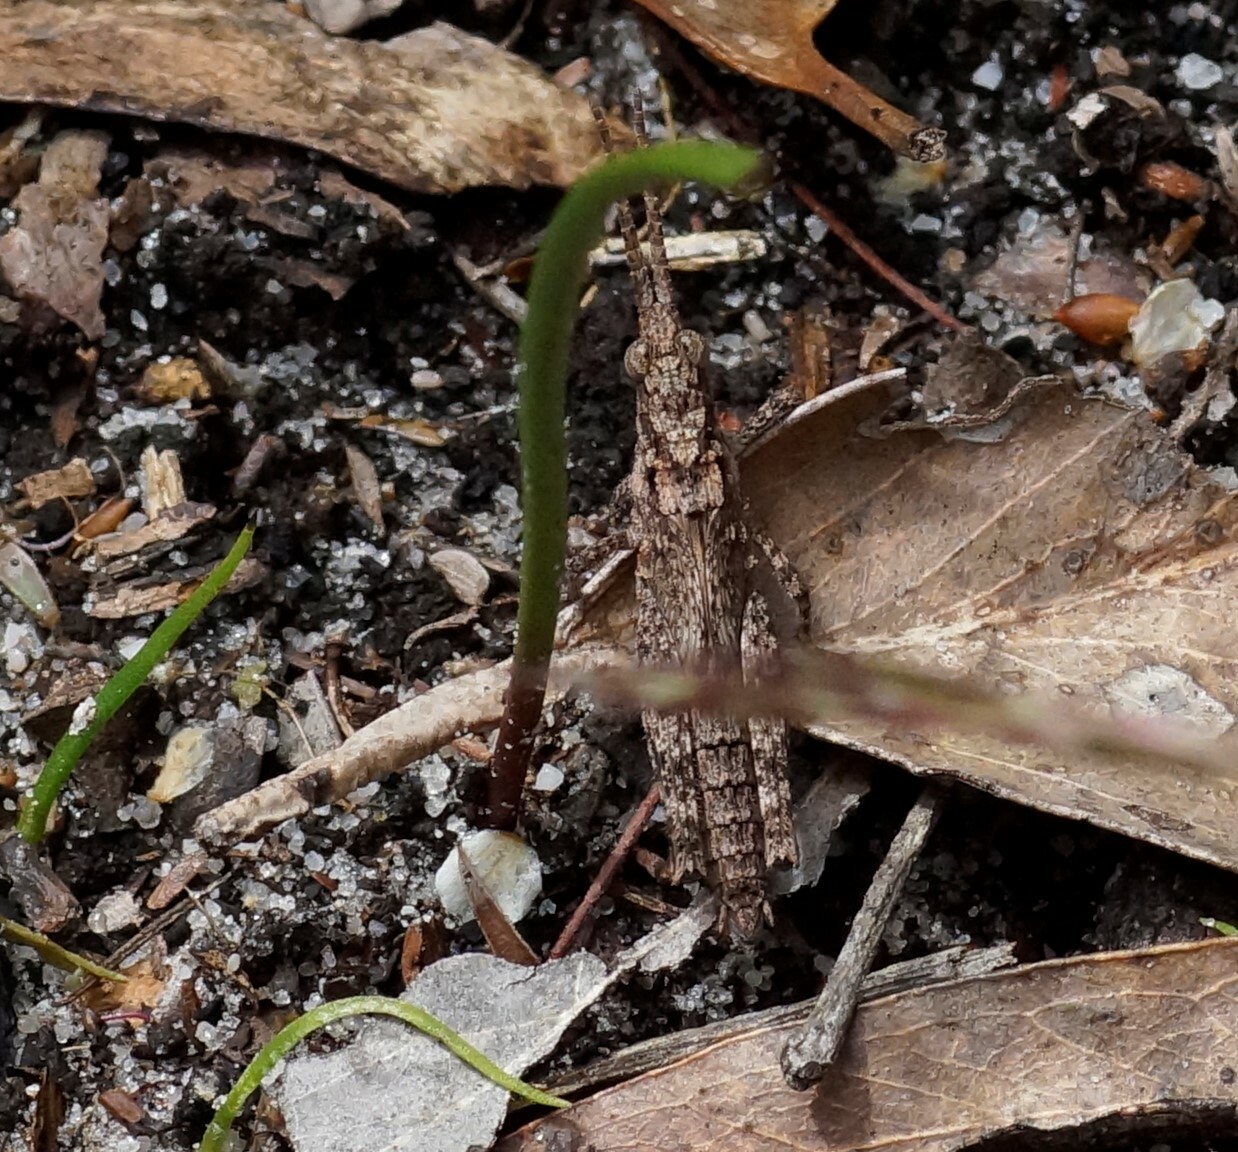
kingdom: Animalia
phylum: Arthropoda
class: Insecta
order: Orthoptera
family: Acrididae
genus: Coryphistes
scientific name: Coryphistes ruricola
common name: Bark-mimicking grasshopper
